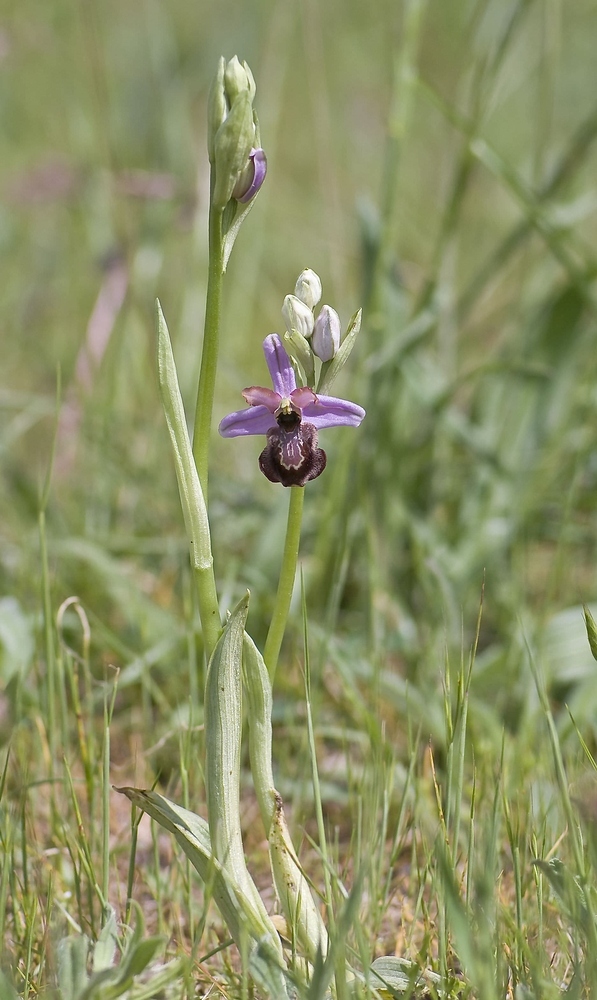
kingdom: Plantae
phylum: Tracheophyta
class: Liliopsida
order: Asparagales
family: Orchidaceae
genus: Ophrys
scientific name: Ophrys sphegodes
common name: Early spider-orchid
